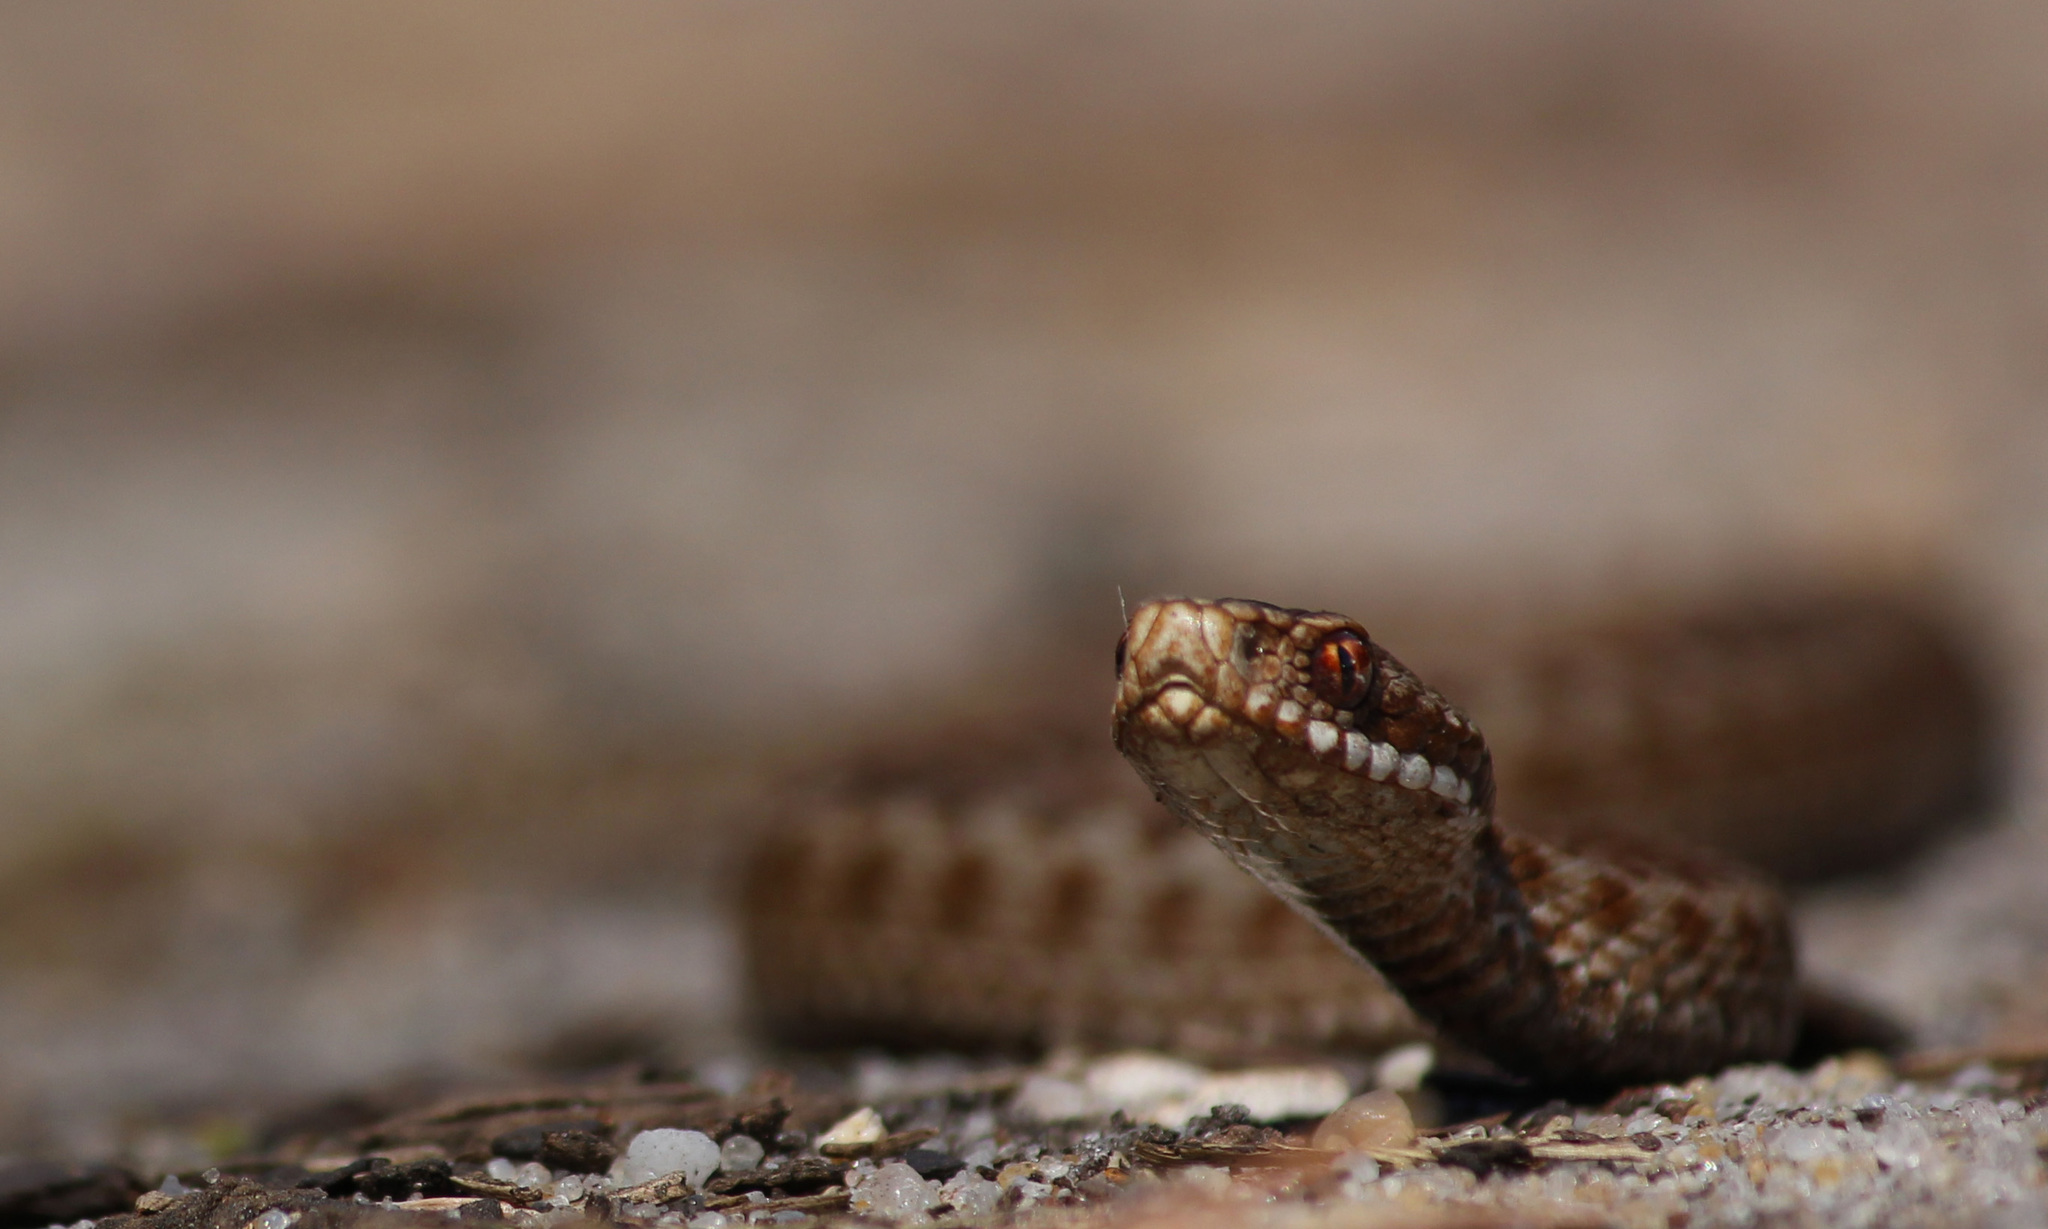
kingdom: Animalia
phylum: Chordata
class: Squamata
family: Viperidae
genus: Vipera
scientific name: Vipera berus
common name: Adder
